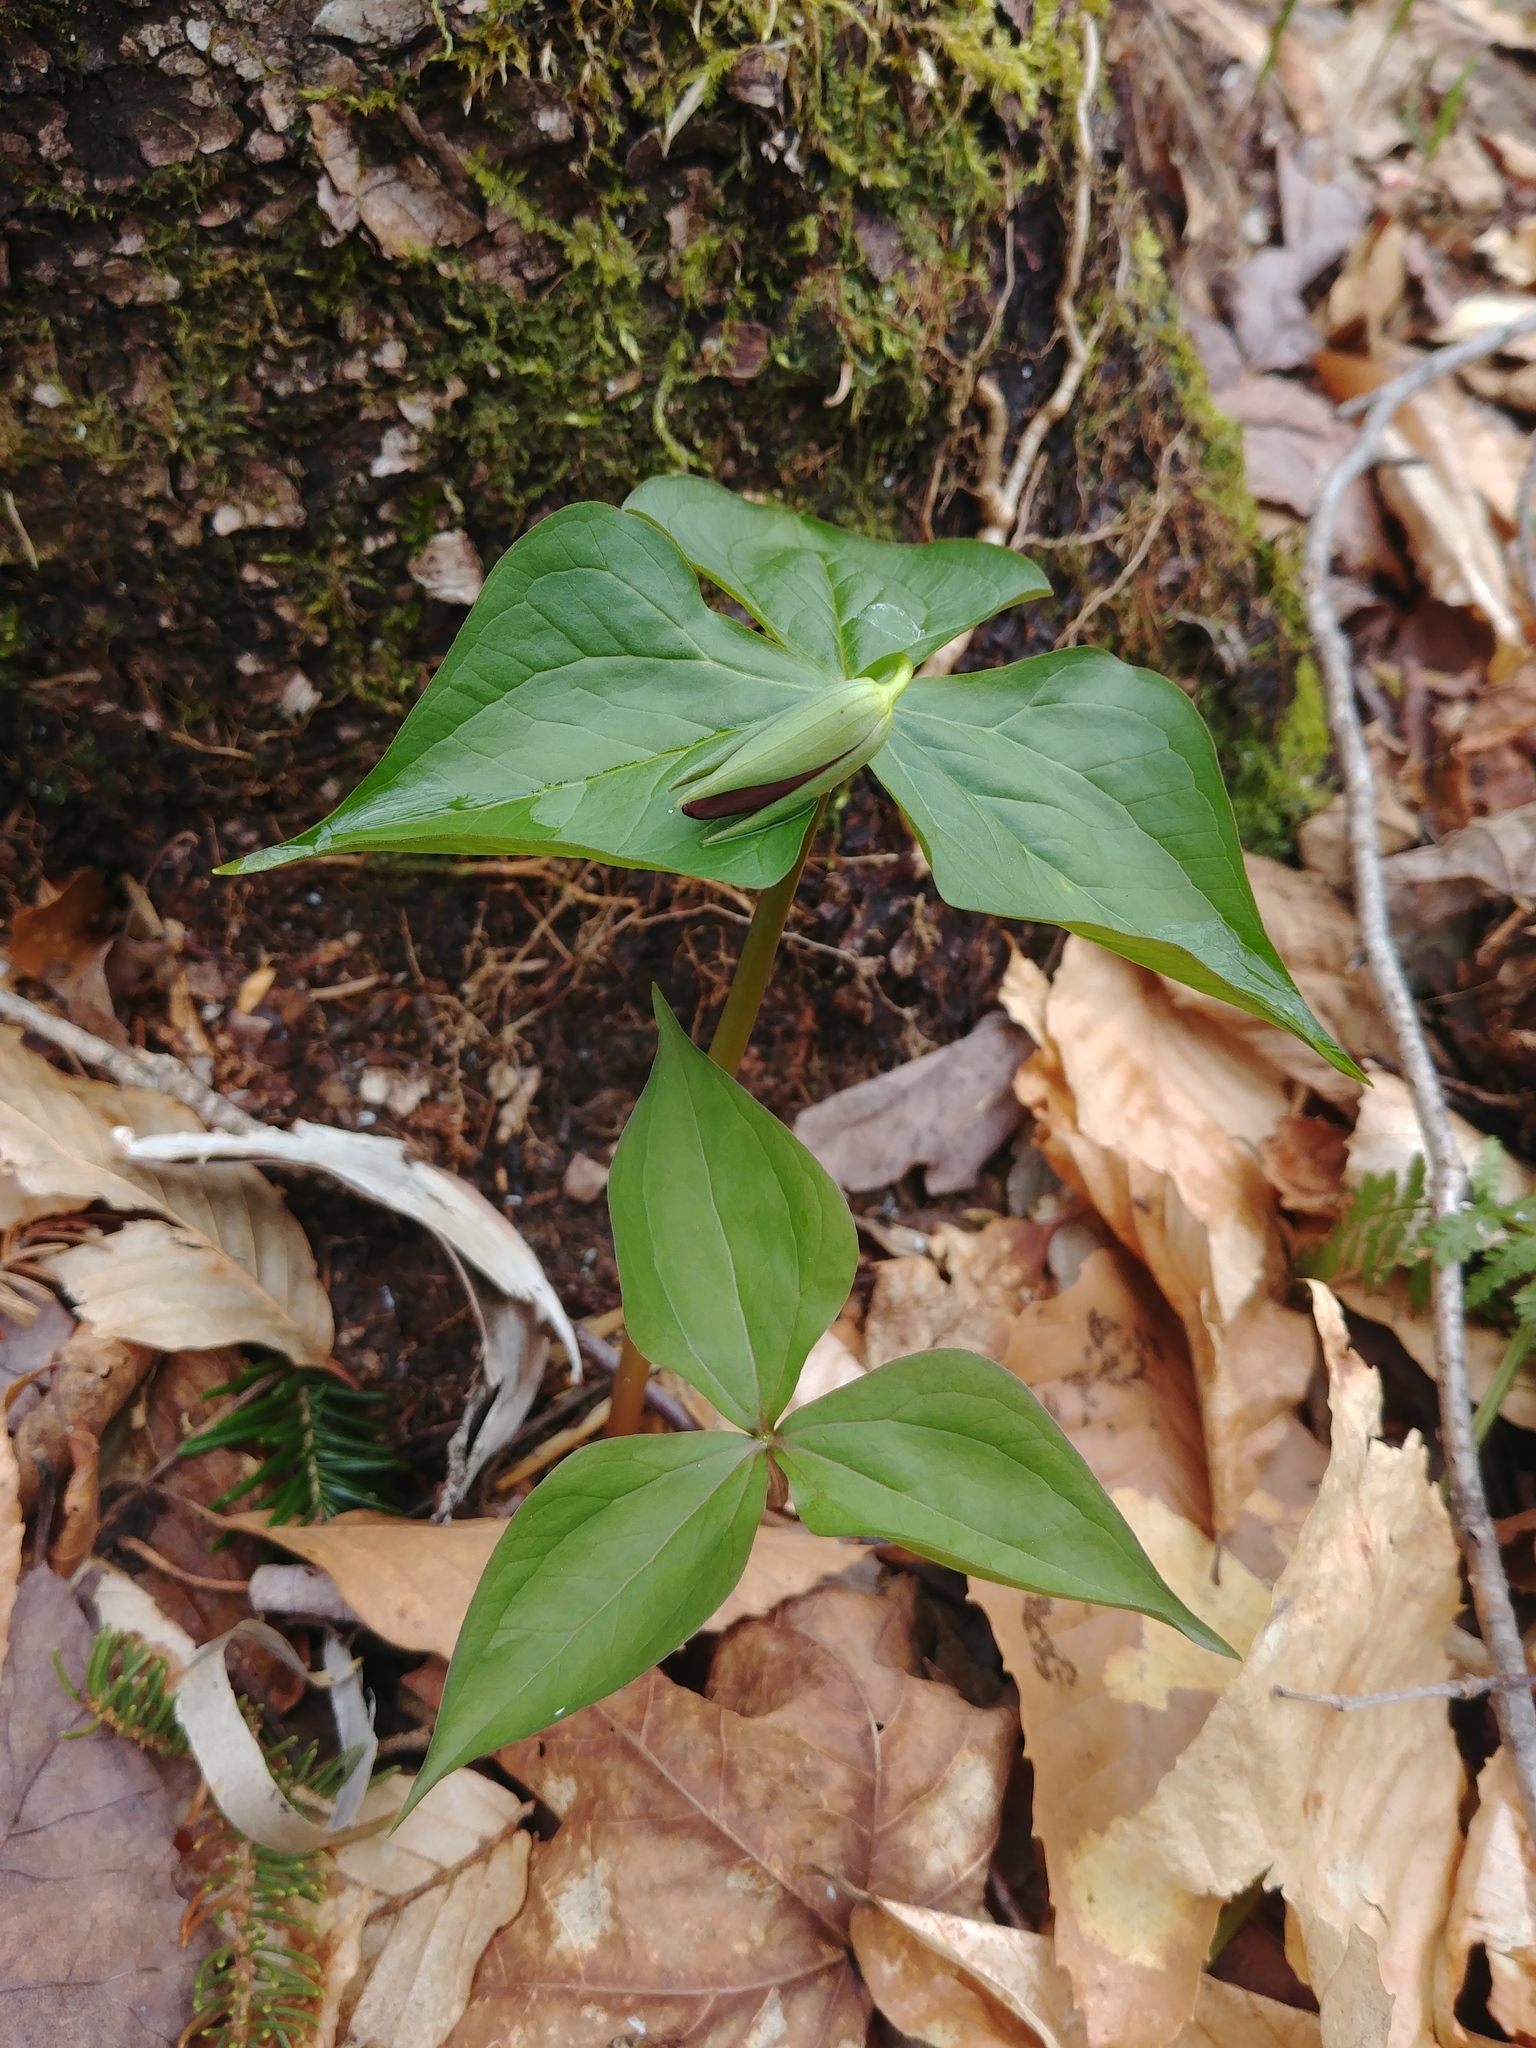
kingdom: Plantae
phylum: Tracheophyta
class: Liliopsida
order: Liliales
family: Melanthiaceae
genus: Trillium
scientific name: Trillium erectum
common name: Purple trillium
